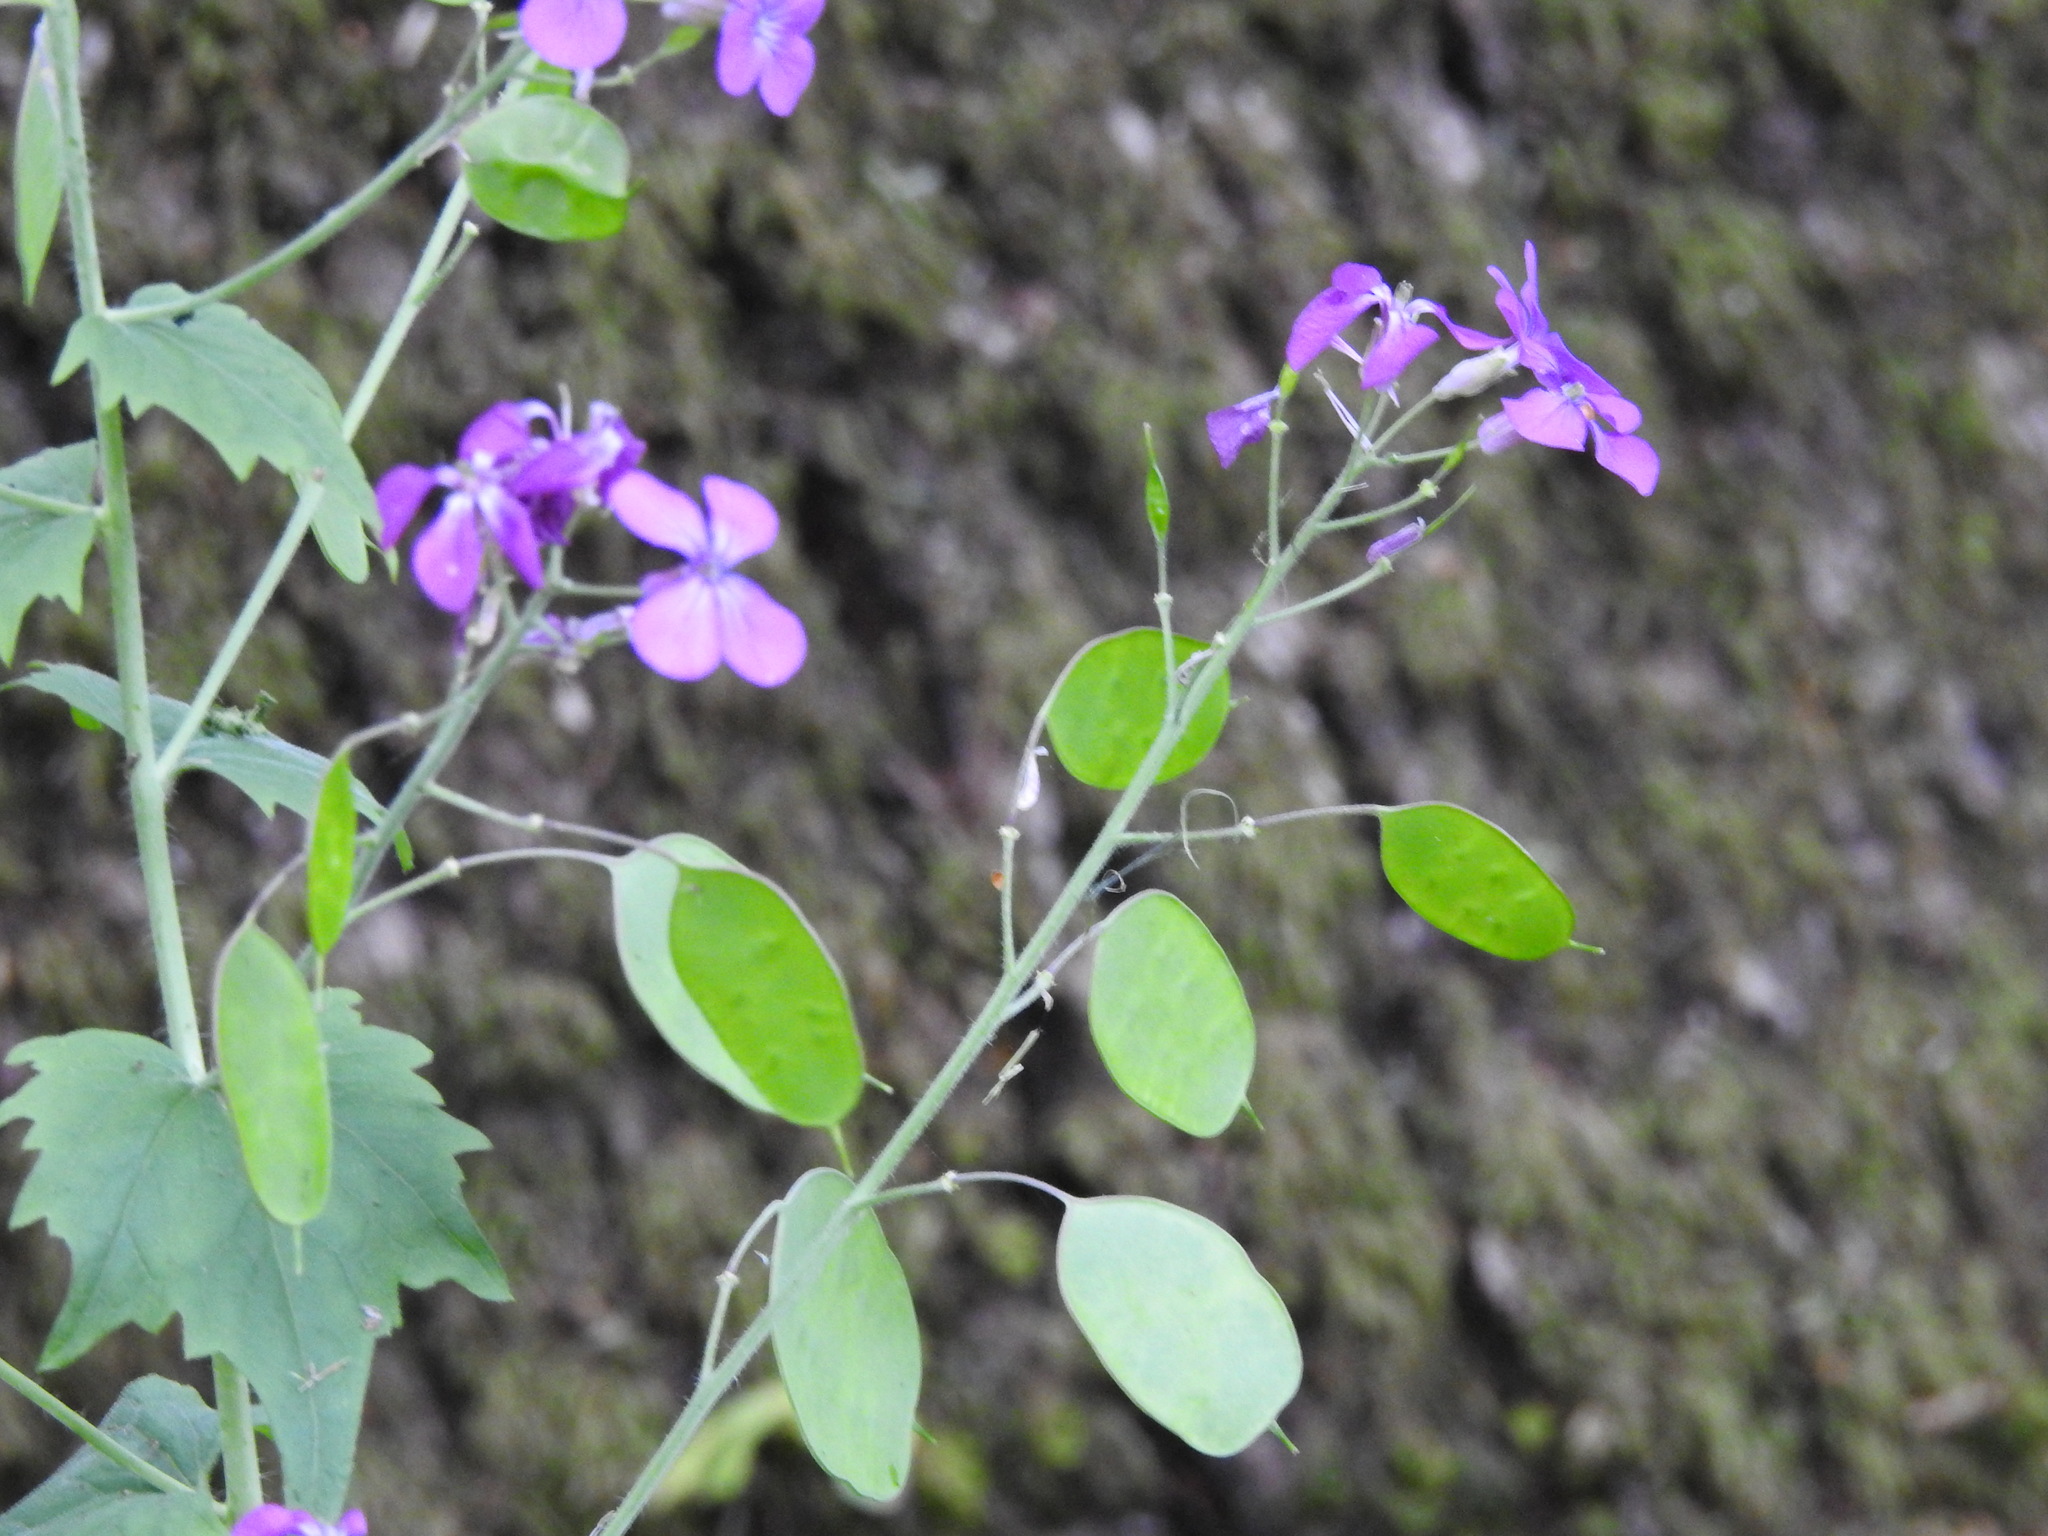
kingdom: Plantae
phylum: Tracheophyta
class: Magnoliopsida
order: Brassicales
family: Brassicaceae
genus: Lunaria
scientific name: Lunaria annua
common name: Honesty
